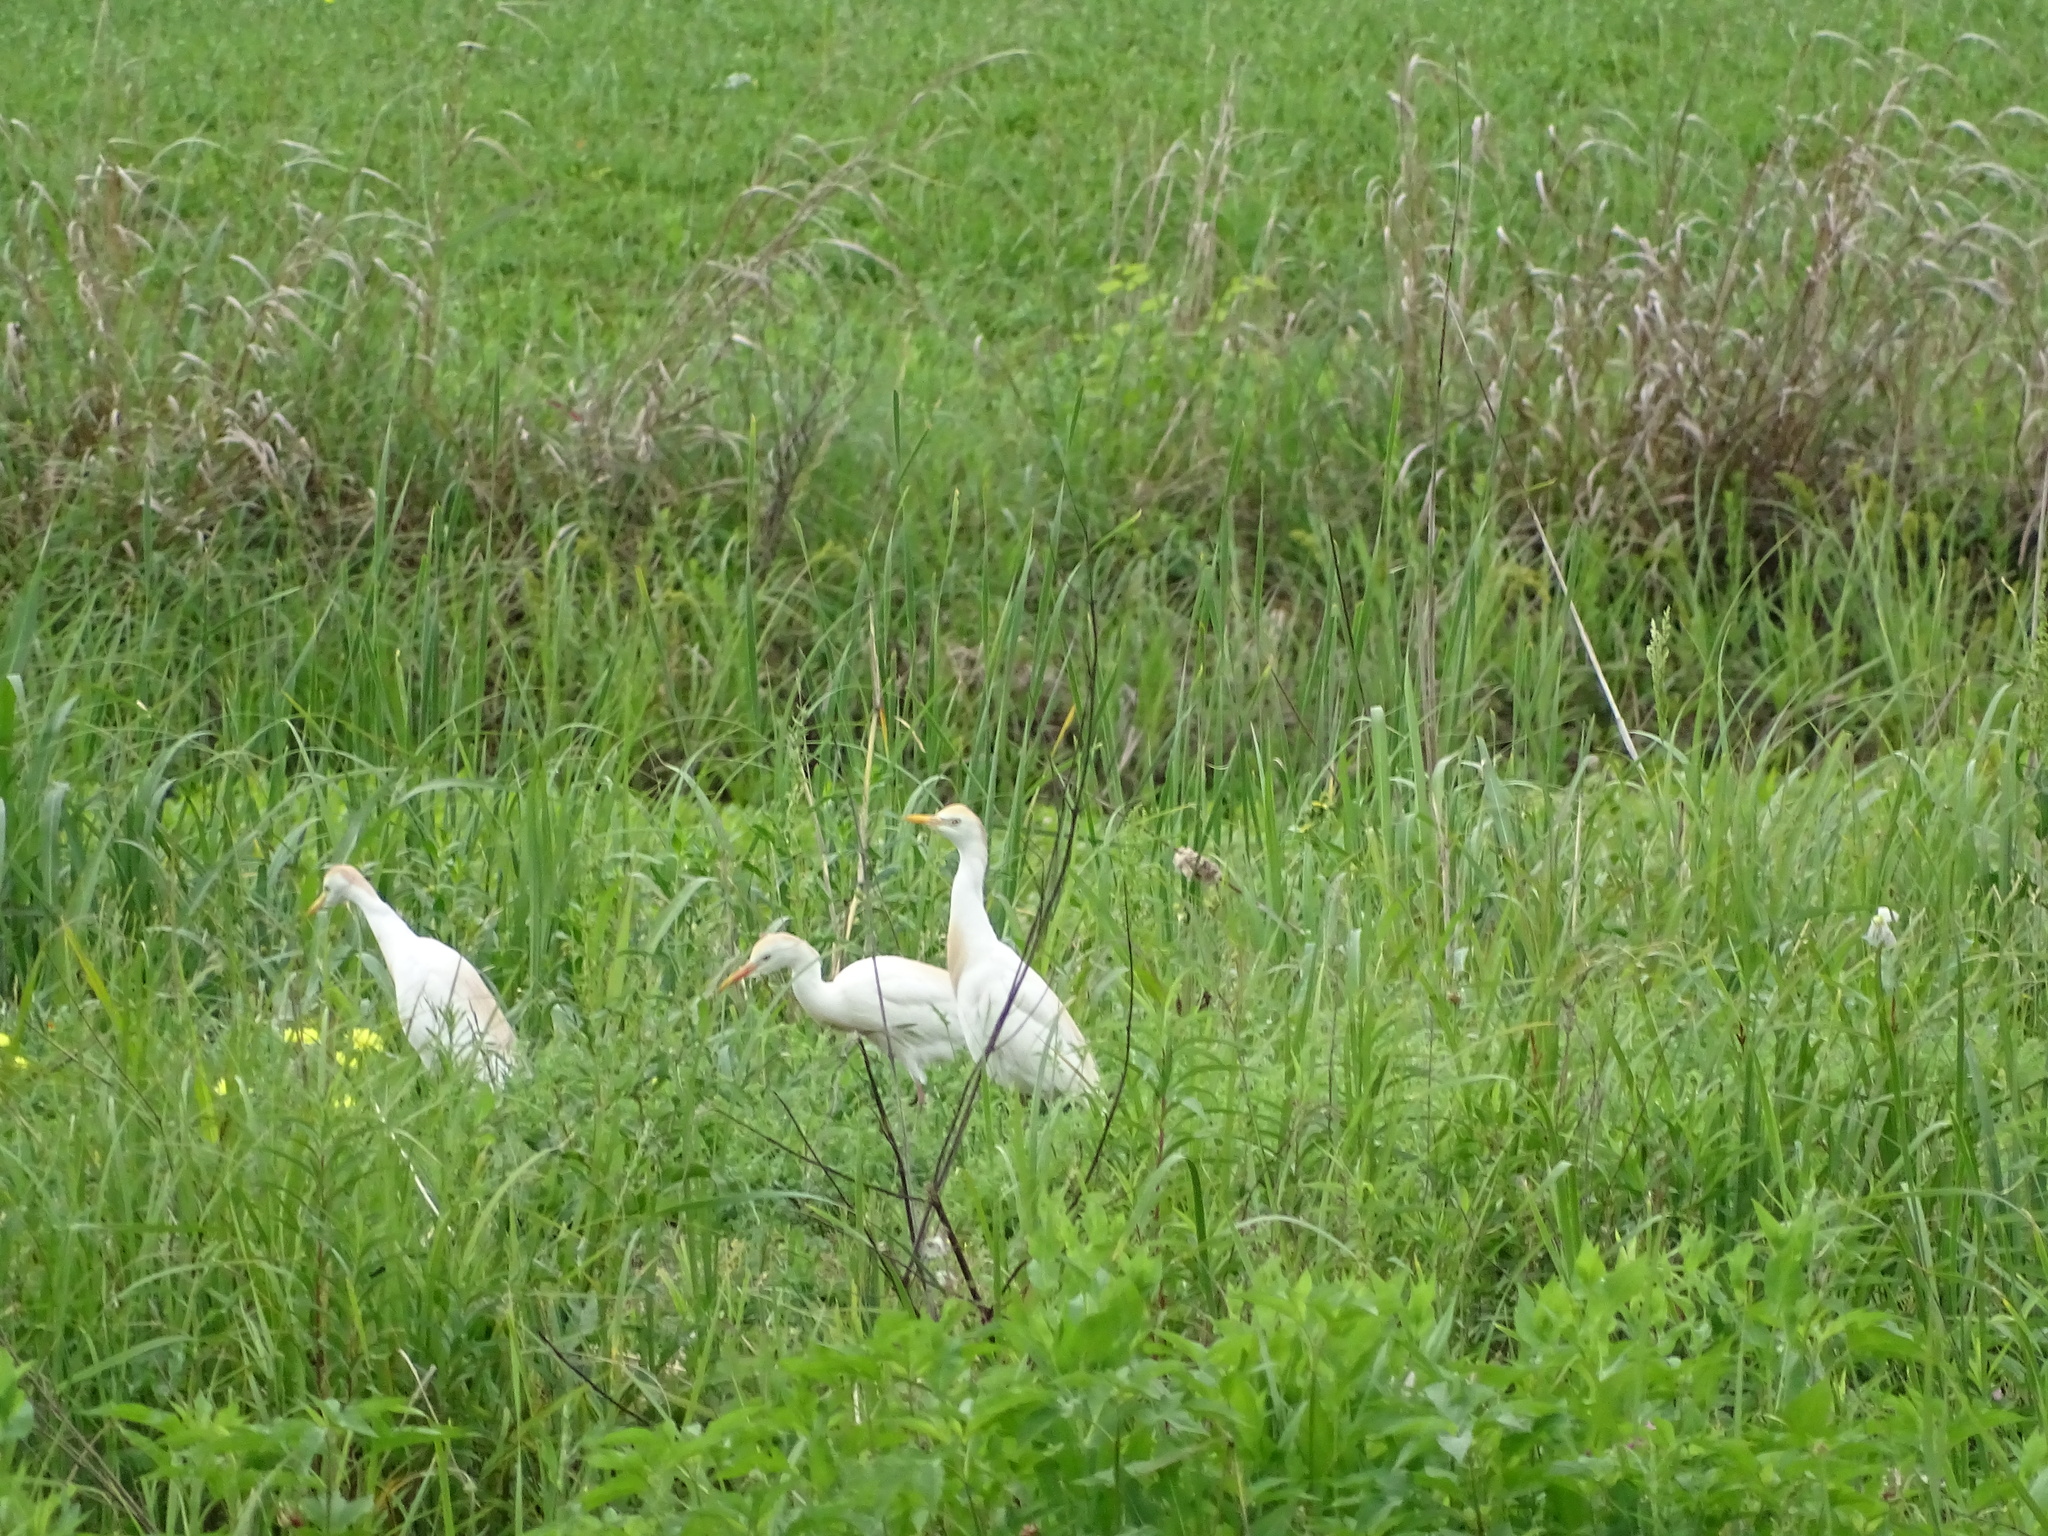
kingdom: Animalia
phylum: Chordata
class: Aves
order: Pelecaniformes
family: Ardeidae
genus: Bubulcus
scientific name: Bubulcus ibis
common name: Cattle egret
